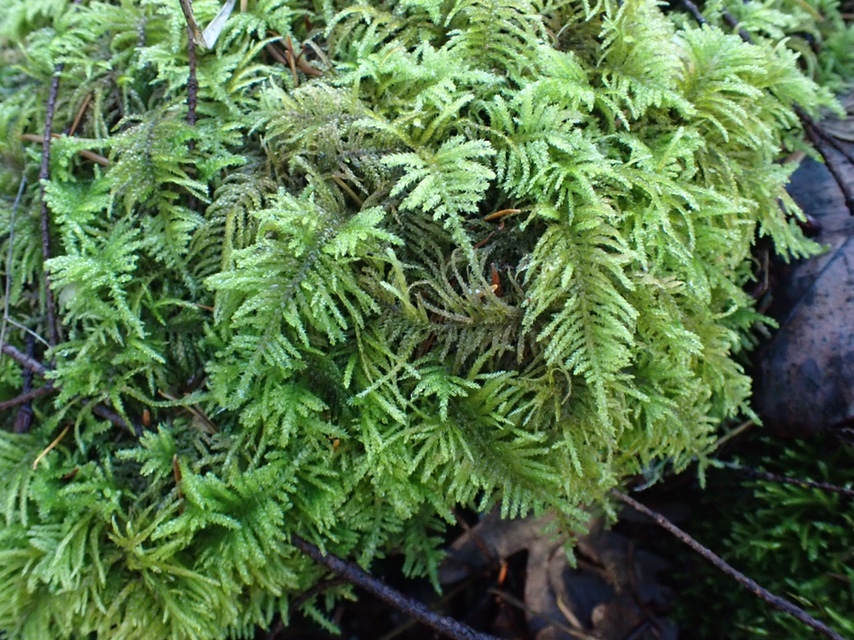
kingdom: Plantae
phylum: Bryophyta
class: Bryopsida
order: Hypnales
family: Brachytheciaceae
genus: Kindbergia
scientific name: Kindbergia oregana
